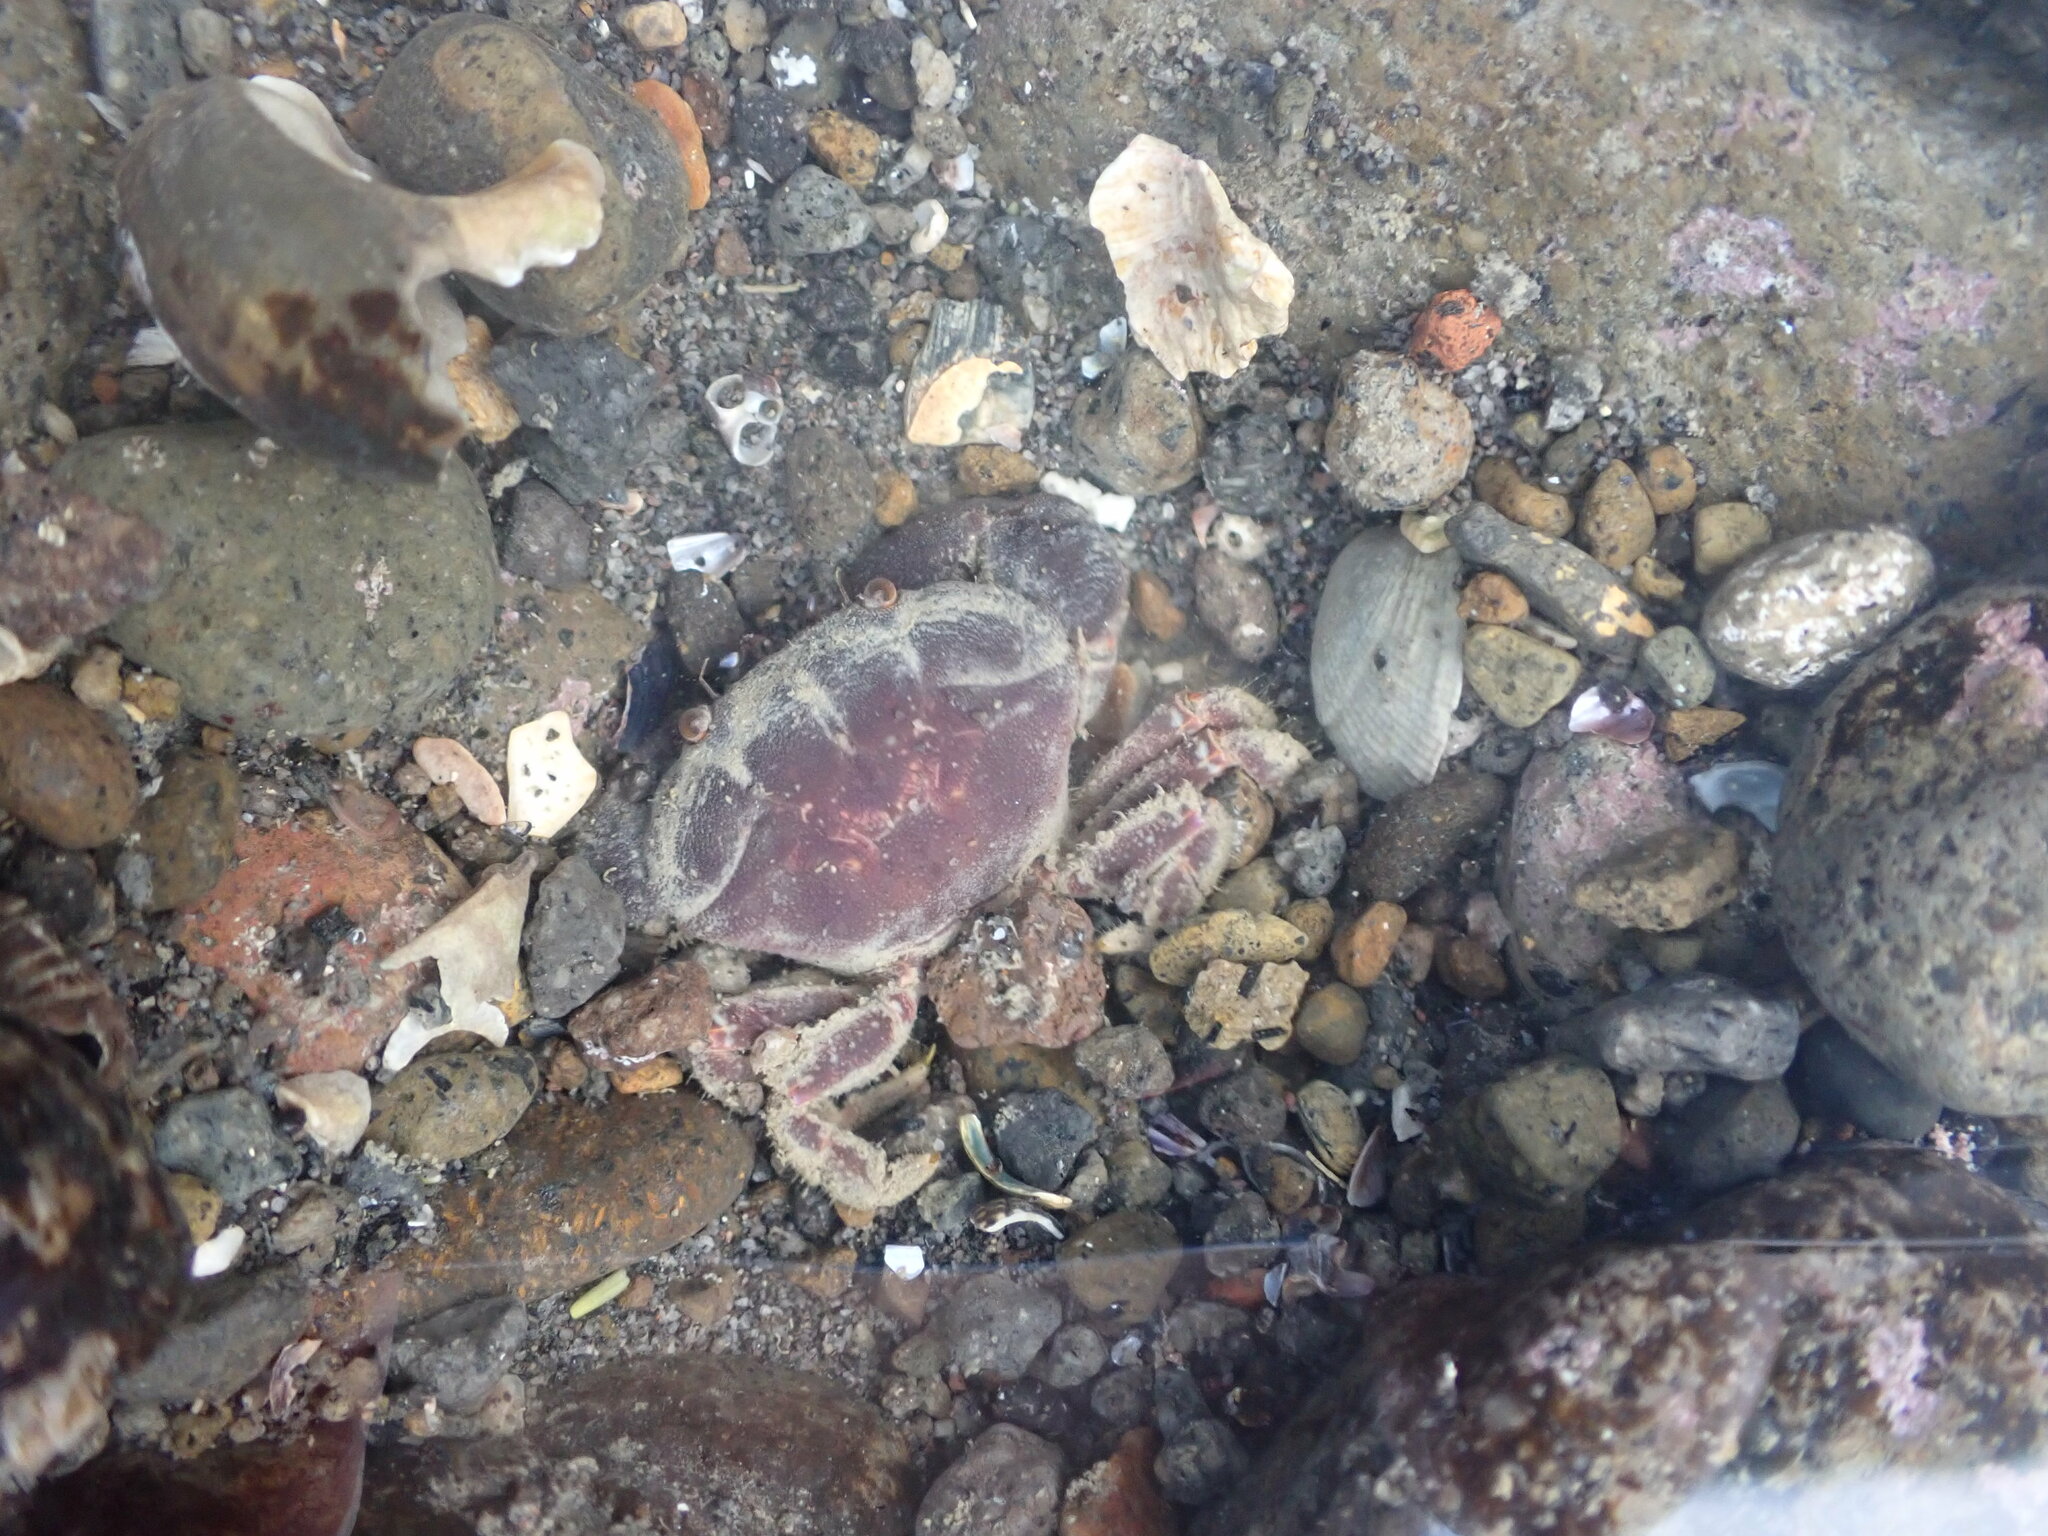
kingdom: Animalia
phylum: Arthropoda
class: Malacostraca
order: Decapoda
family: Oziidae
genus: Ozius
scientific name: Ozius deplanatus
